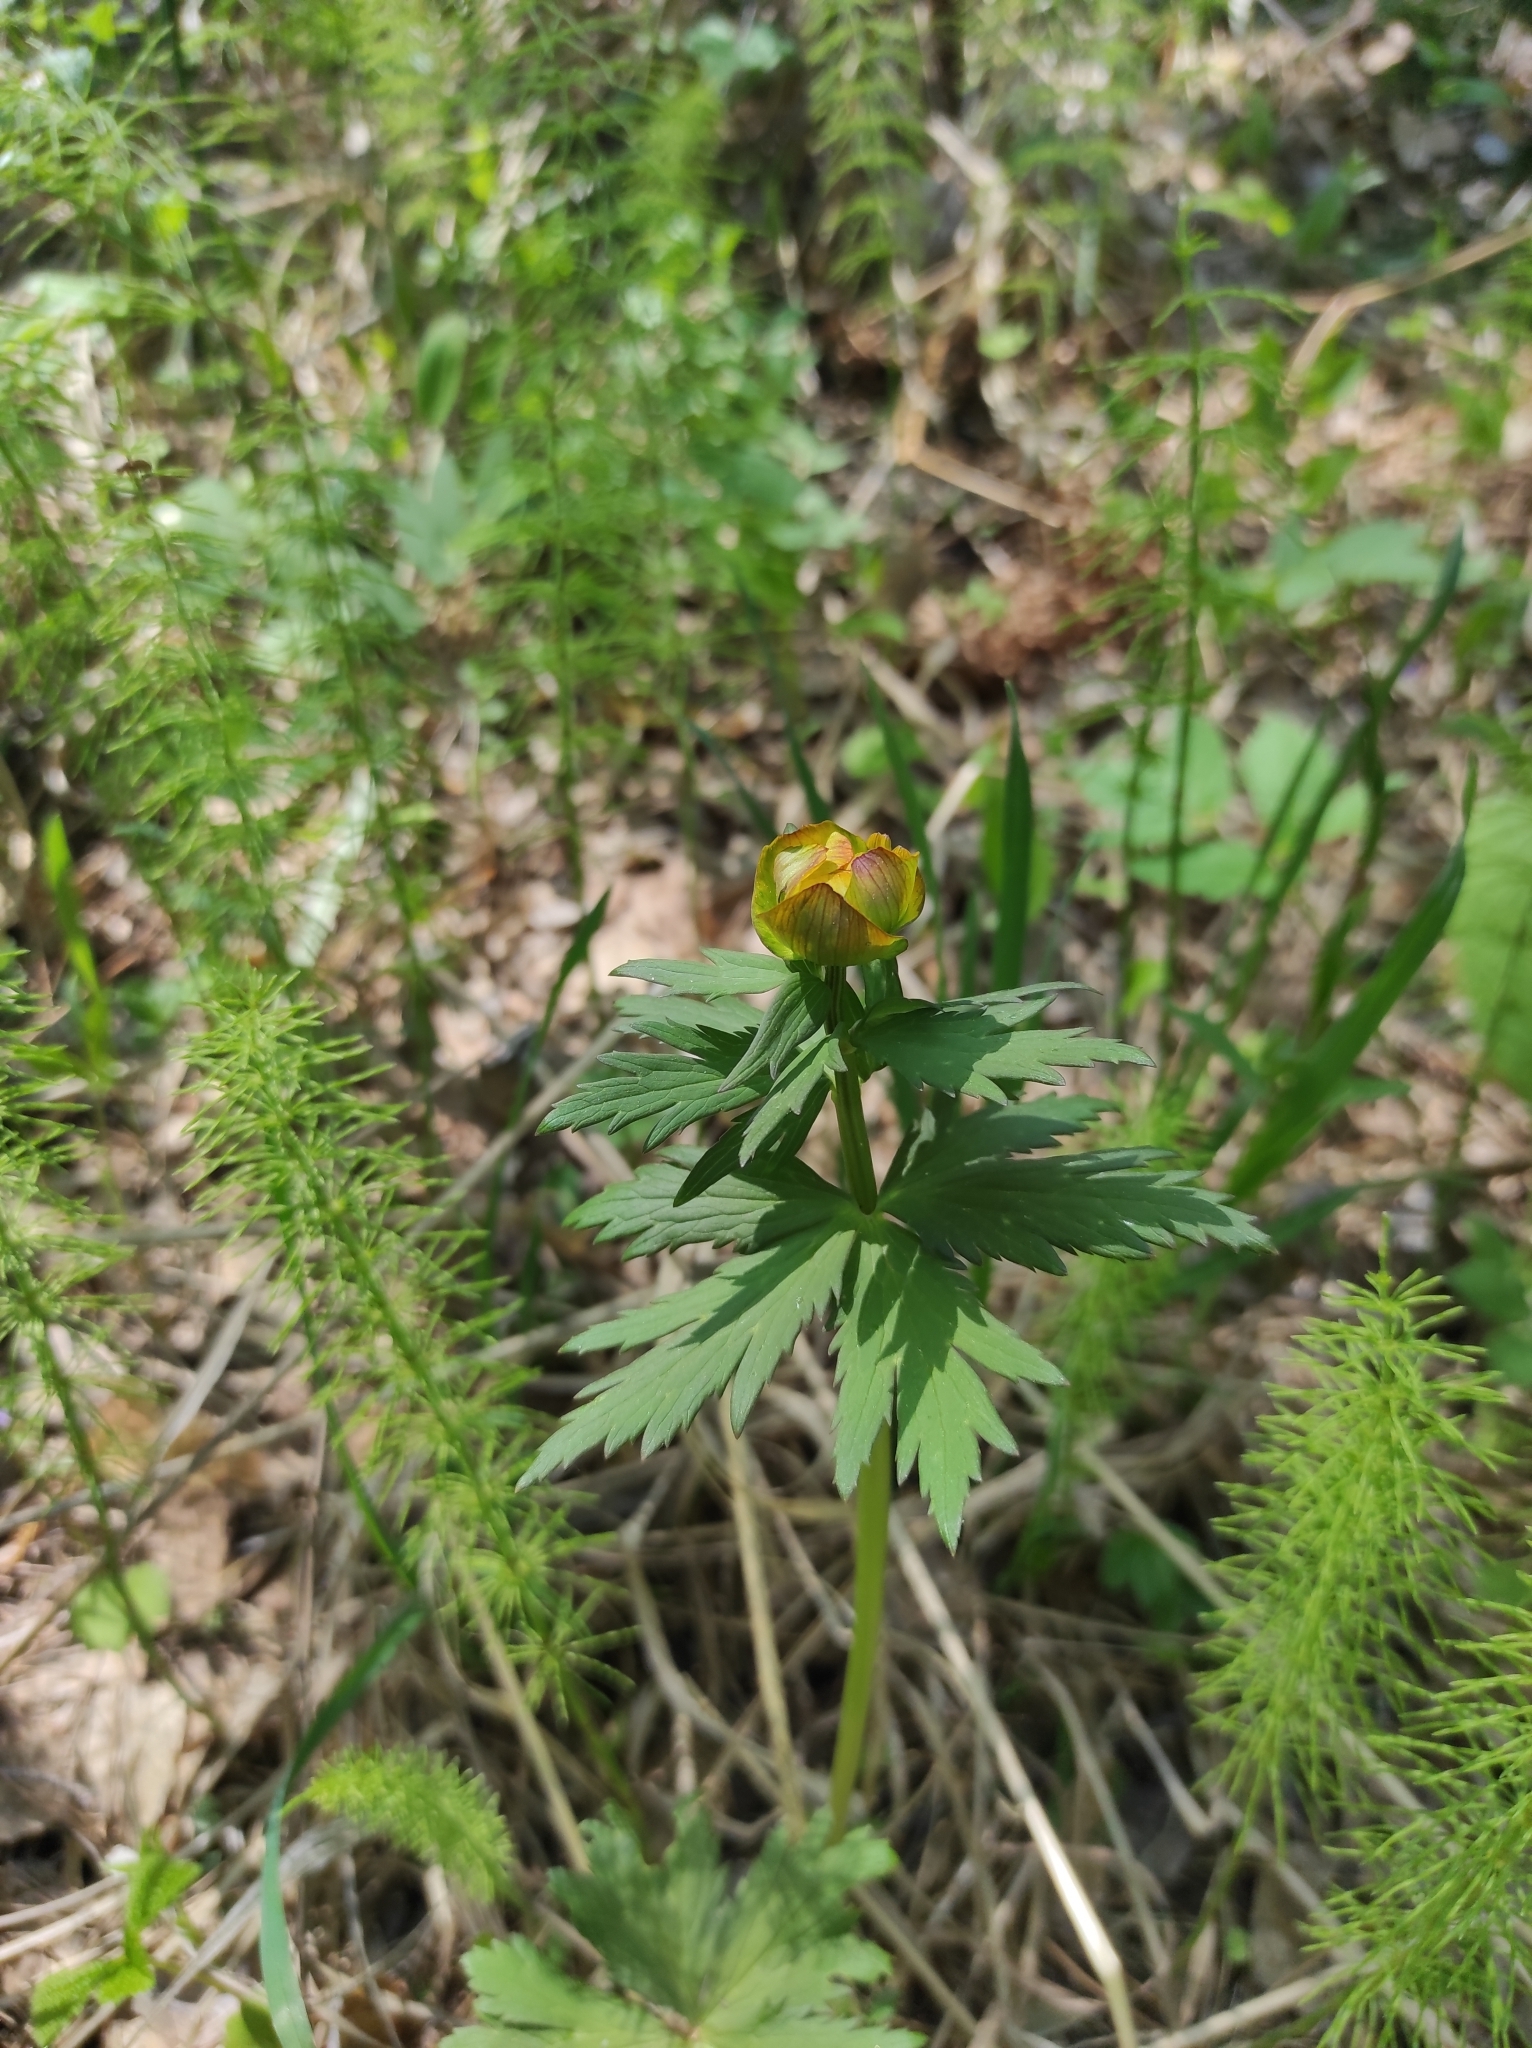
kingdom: Plantae
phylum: Tracheophyta
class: Magnoliopsida
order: Ranunculales
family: Ranunculaceae
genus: Trollius
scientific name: Trollius asiaticus
